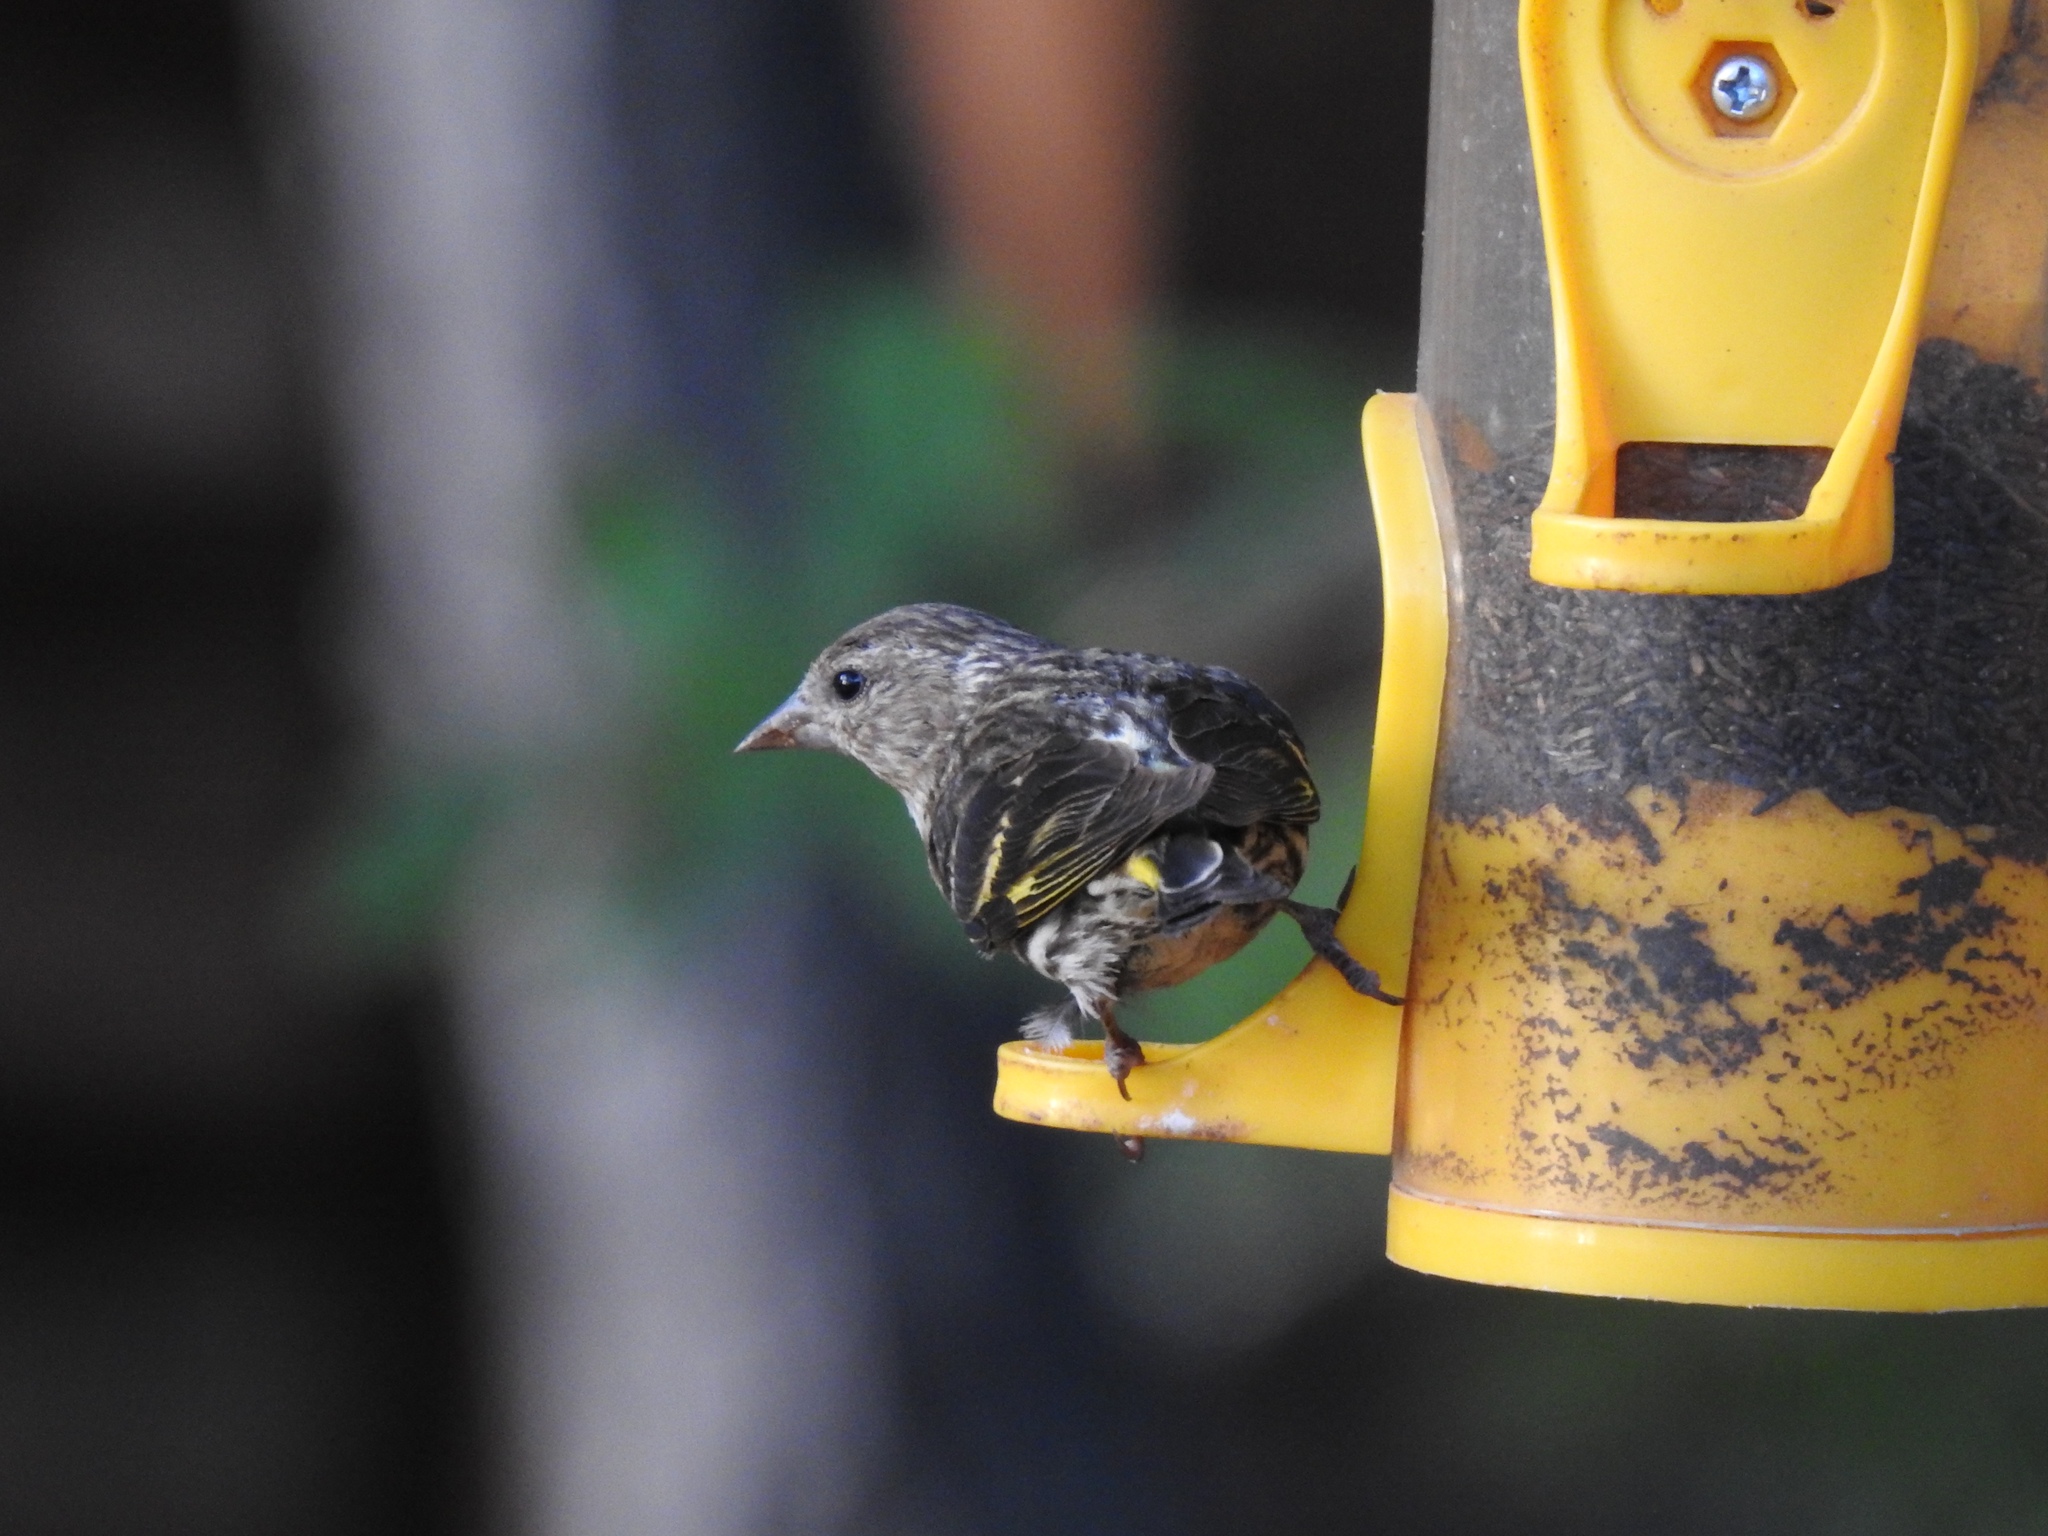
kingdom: Animalia
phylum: Chordata
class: Aves
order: Passeriformes
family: Fringillidae
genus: Spinus
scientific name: Spinus pinus
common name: Pine siskin
